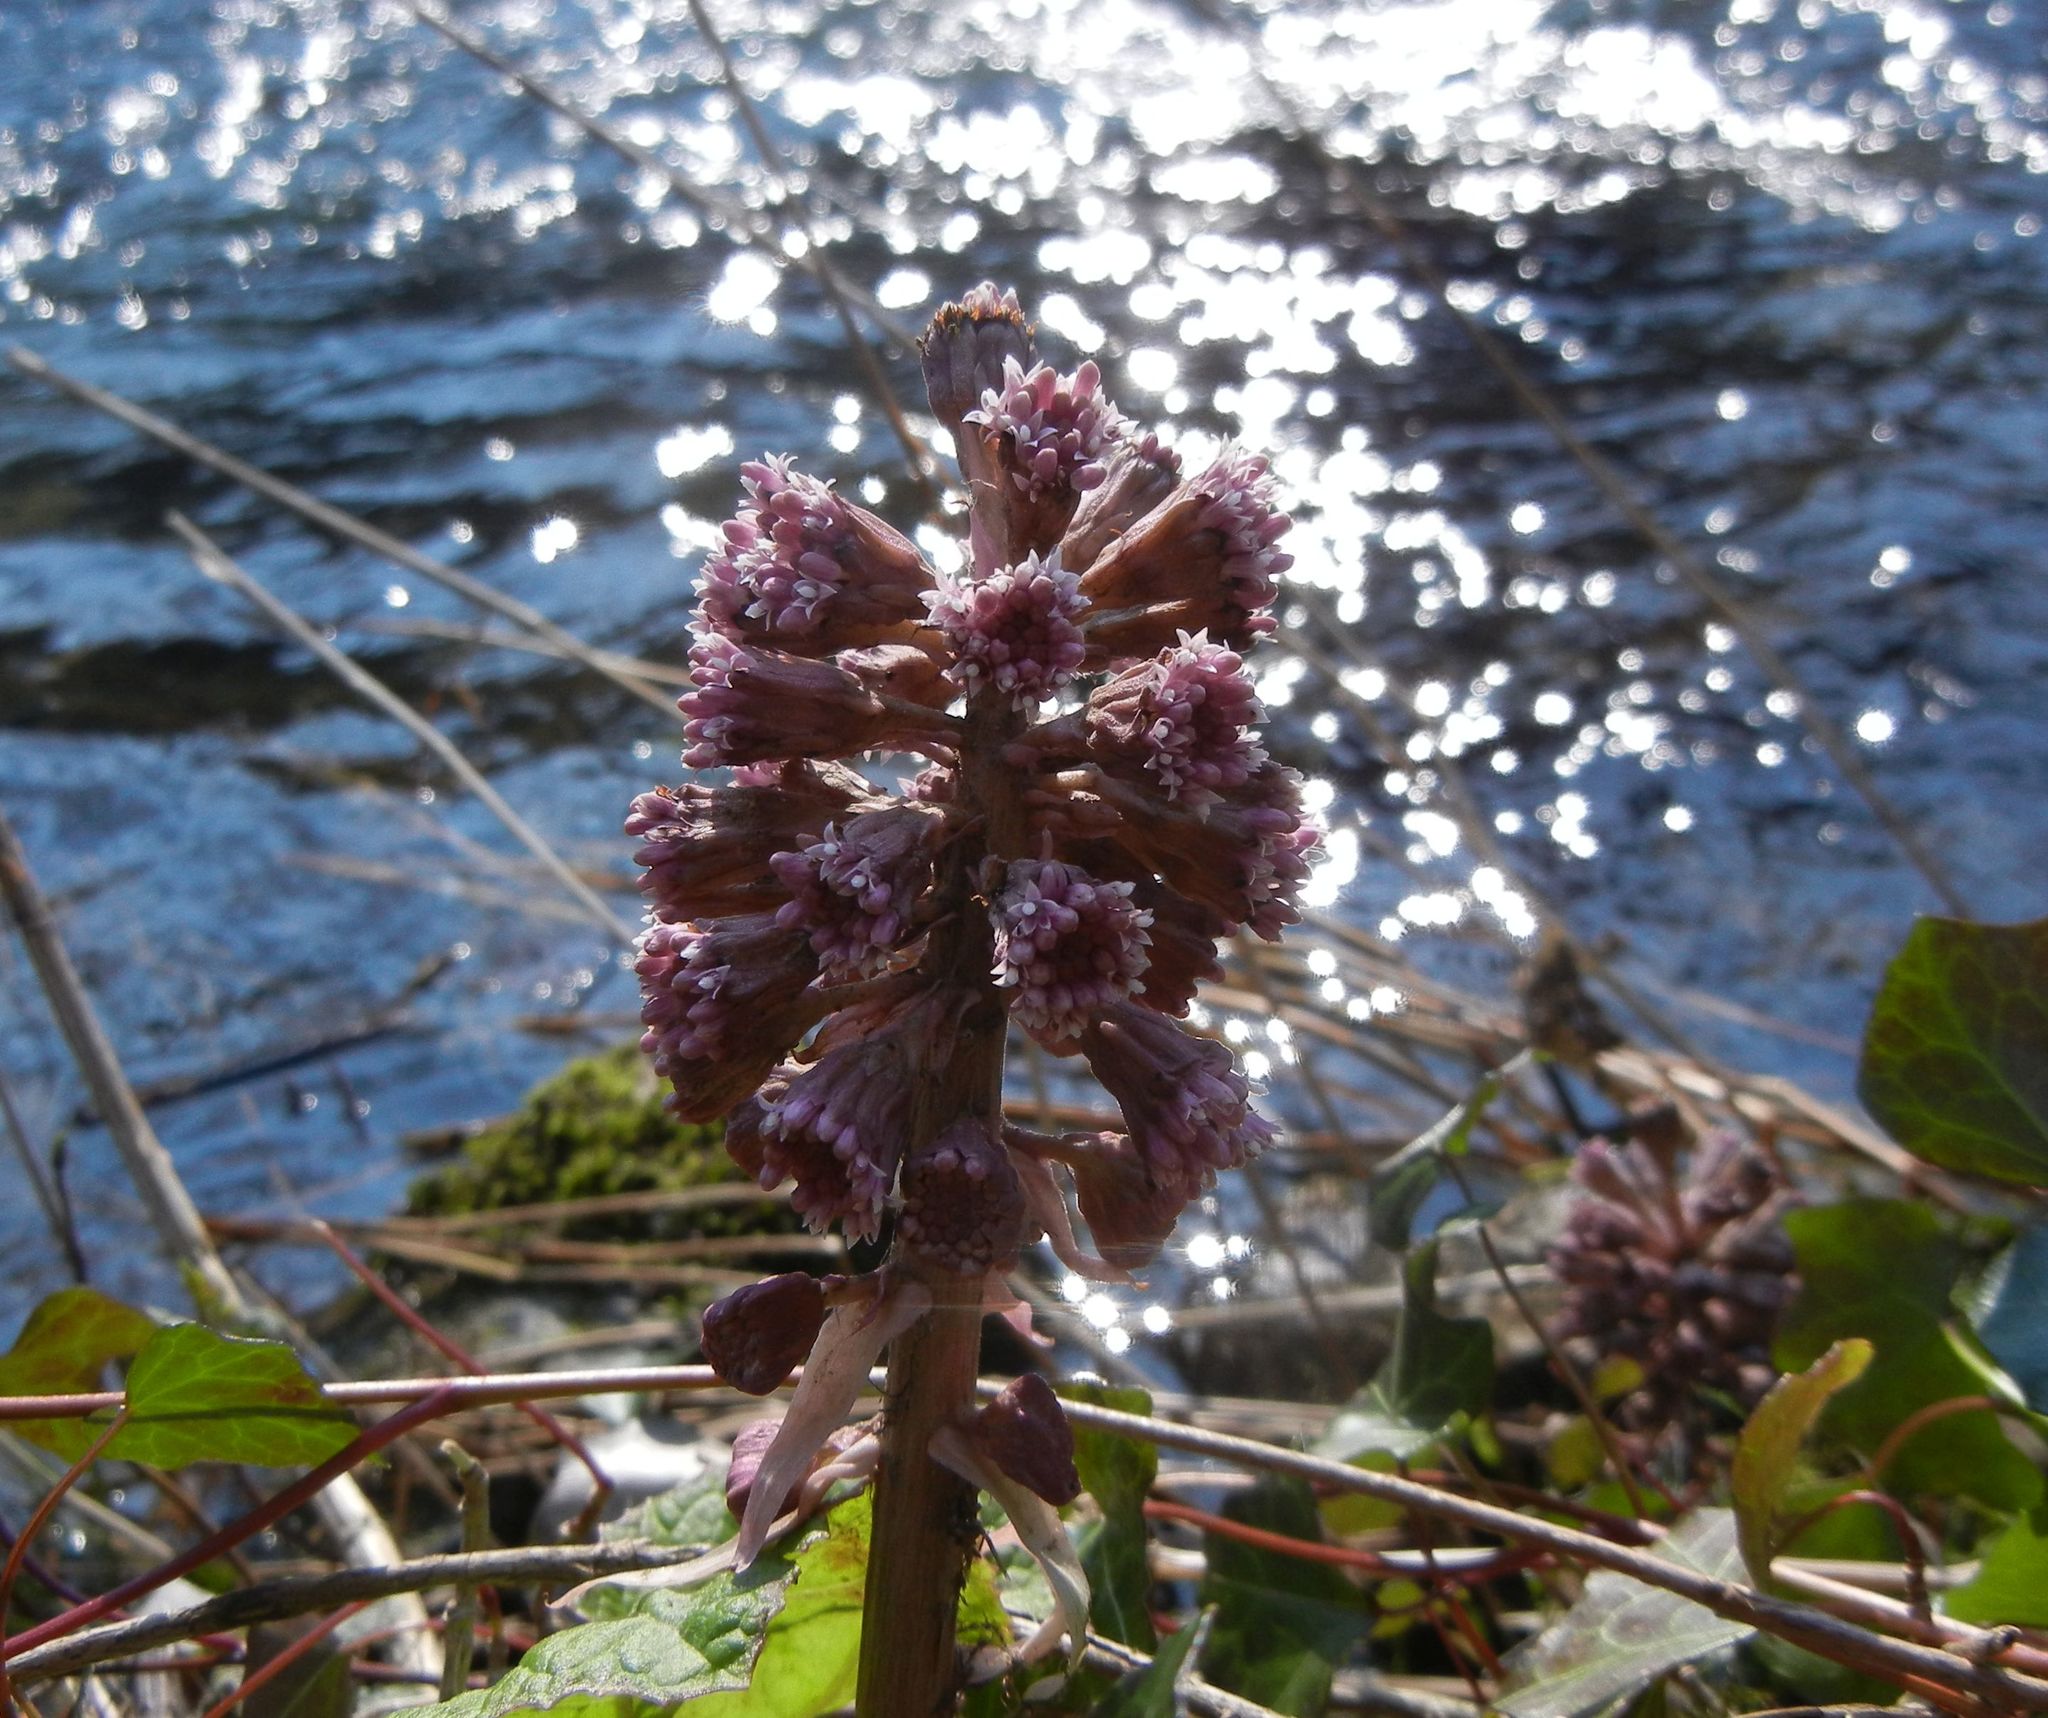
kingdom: Plantae
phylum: Tracheophyta
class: Magnoliopsida
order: Asterales
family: Asteraceae
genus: Petasites
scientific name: Petasites hybridus
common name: Butterbur
